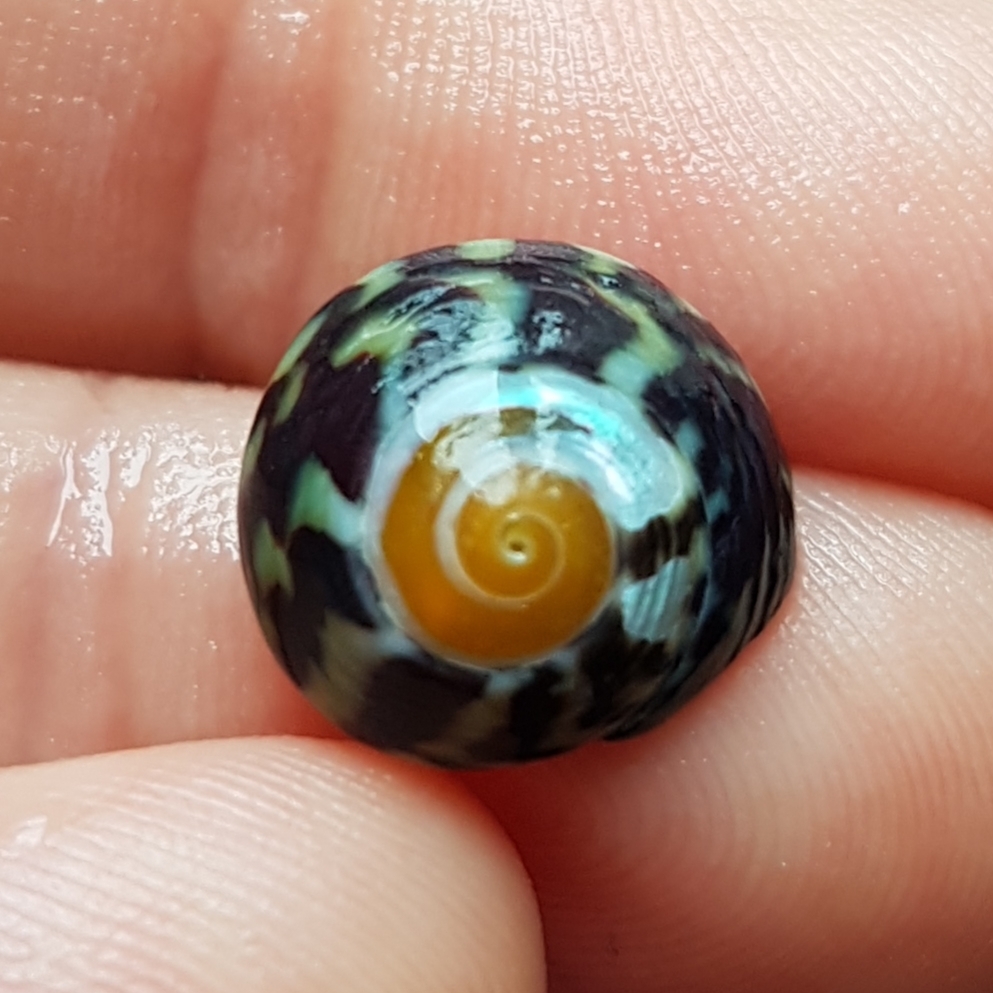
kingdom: Animalia
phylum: Mollusca
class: Gastropoda
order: Trochida
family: Trochidae
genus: Steromphala
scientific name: Steromphala pennanti
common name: Pennant's top shell
